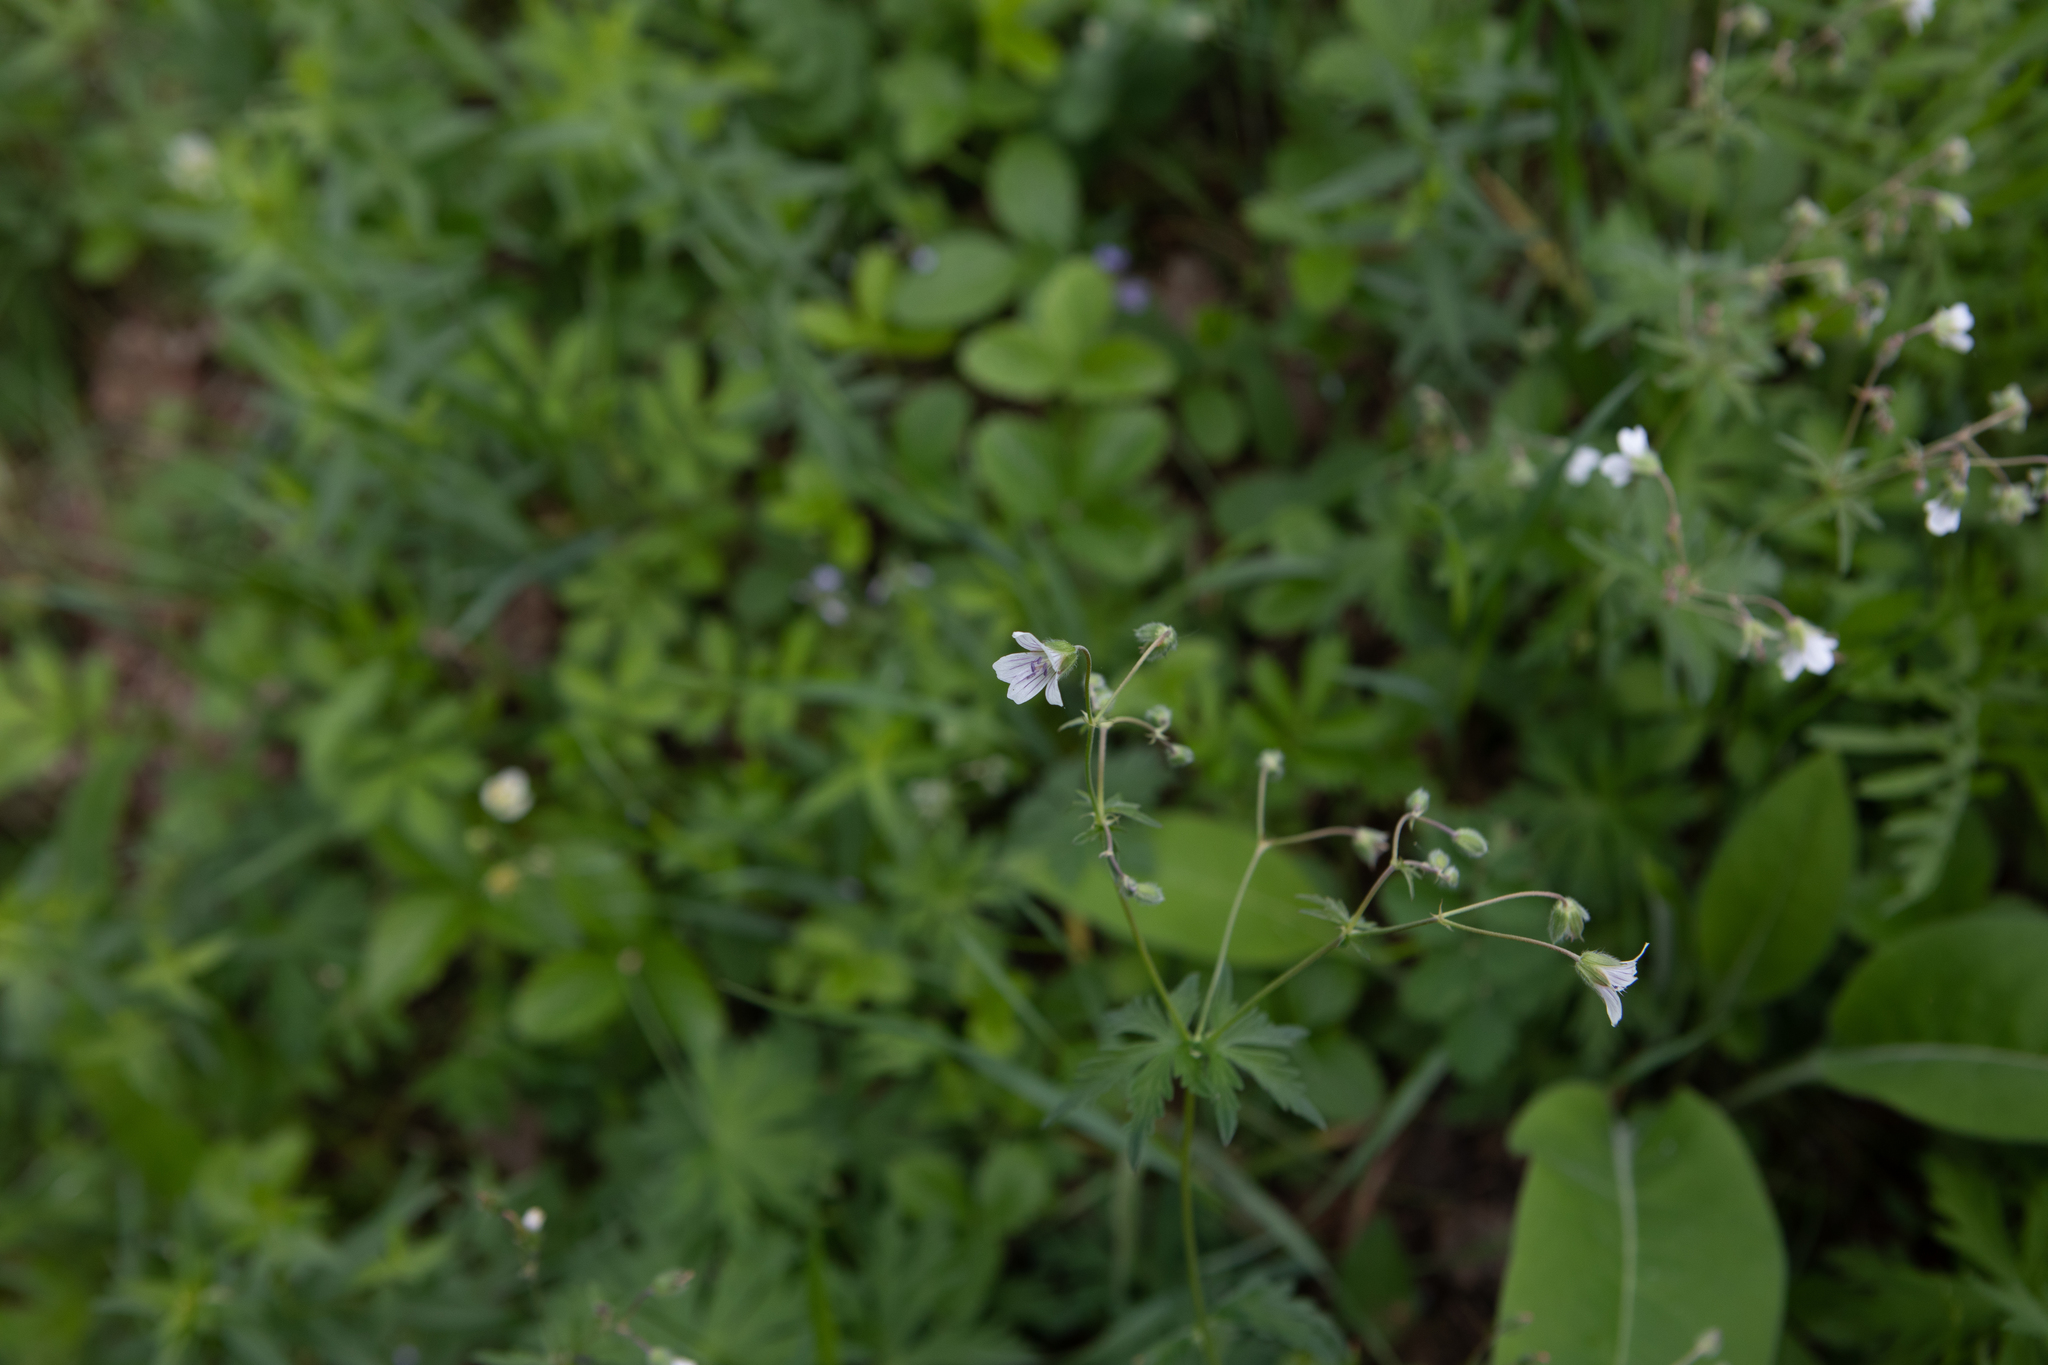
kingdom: Plantae
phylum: Tracheophyta
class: Magnoliopsida
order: Geraniales
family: Geraniaceae
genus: Geranium
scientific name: Geranium pseudosibiricum
